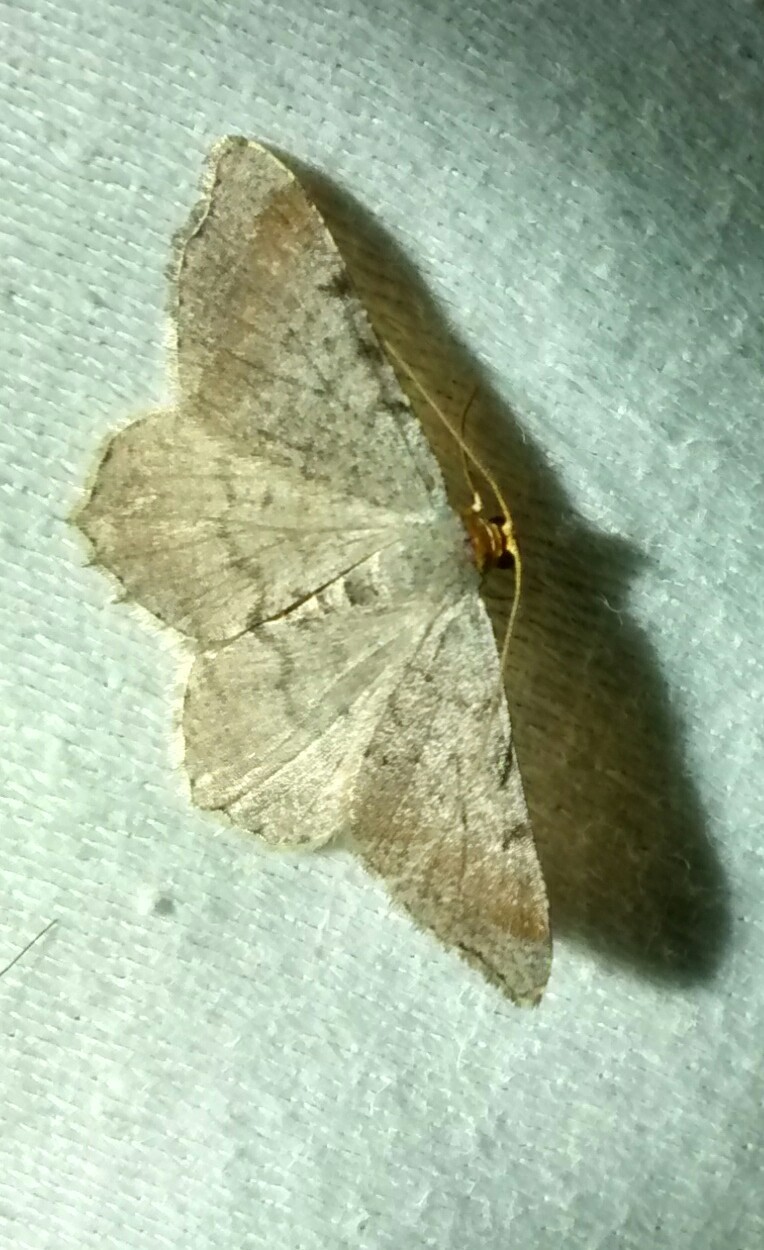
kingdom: Animalia
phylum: Arthropoda
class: Insecta
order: Lepidoptera
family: Geometridae
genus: Macaria
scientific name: Macaria transitaria
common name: Blurry chocolate angle
